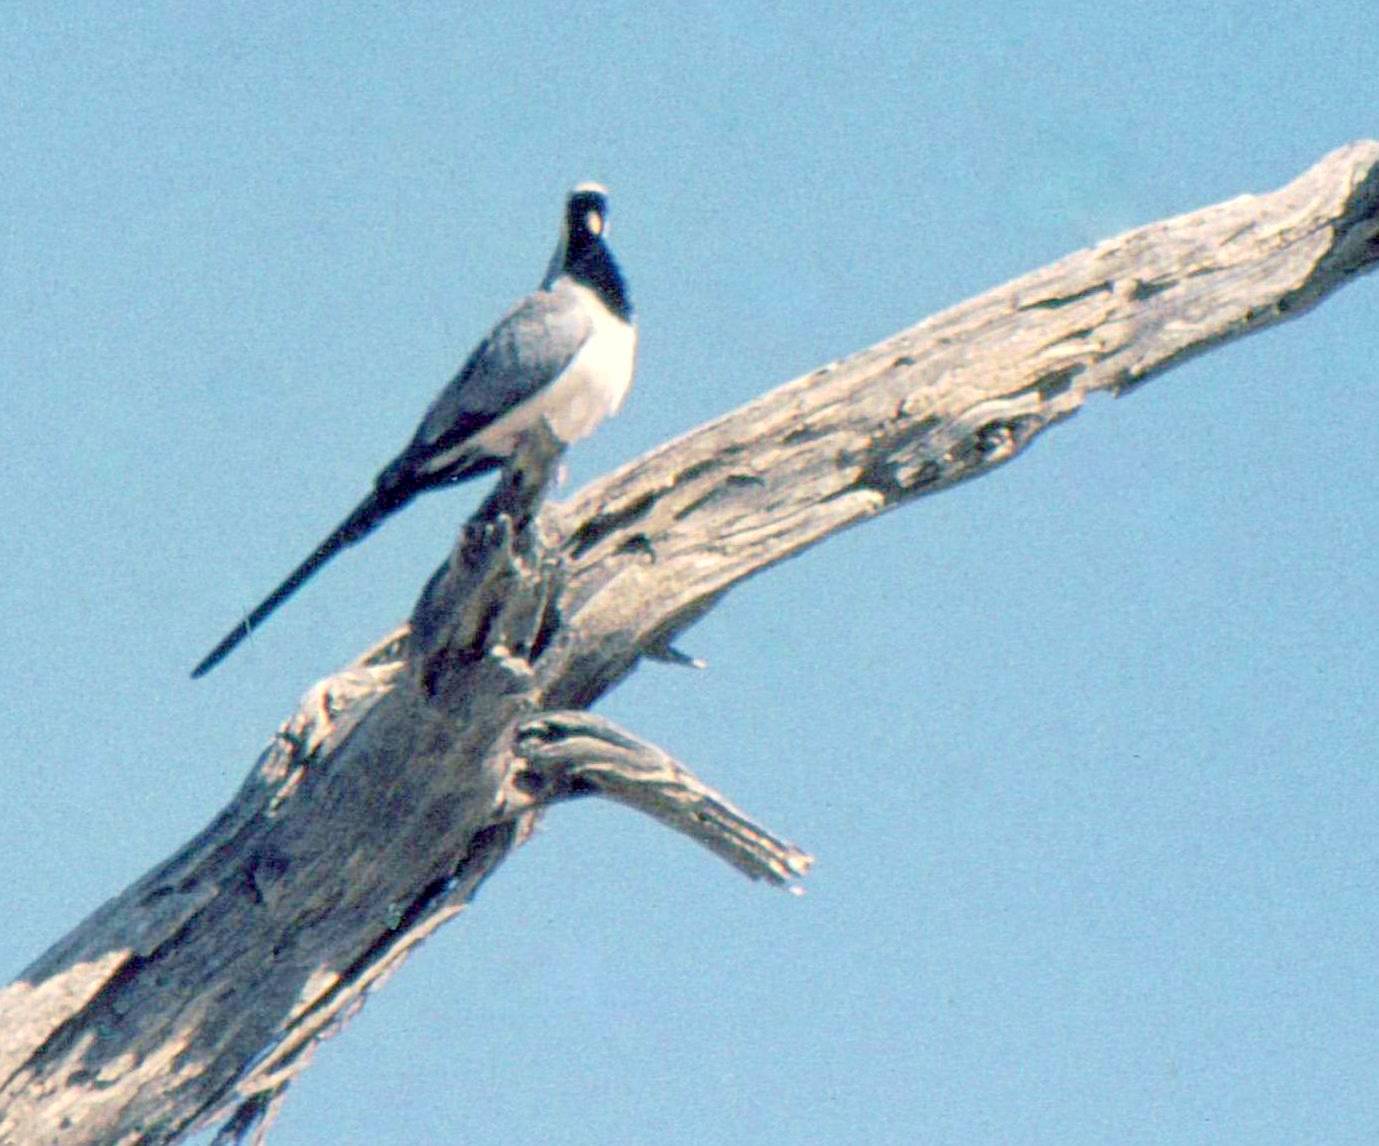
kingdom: Animalia
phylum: Chordata
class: Aves
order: Columbiformes
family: Columbidae
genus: Oena
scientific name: Oena capensis
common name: Namaqua dove
